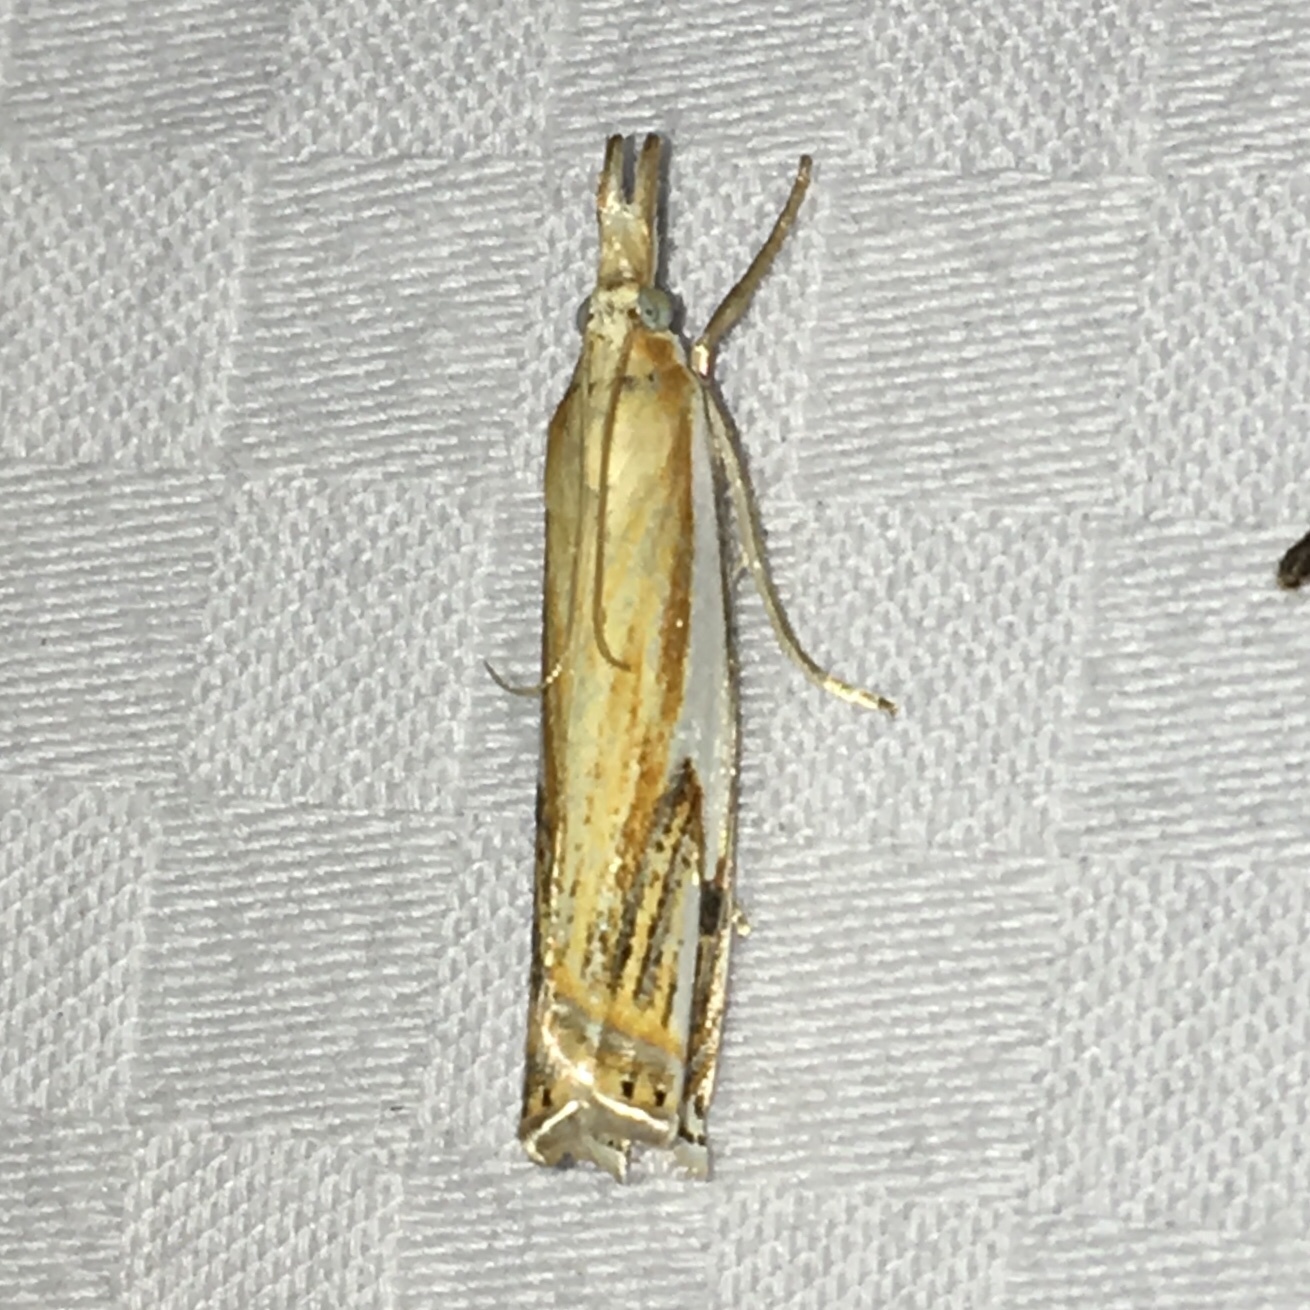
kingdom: Animalia
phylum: Arthropoda
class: Insecta
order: Lepidoptera
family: Crambidae
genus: Crambus
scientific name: Crambus agitatellus
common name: Double-banded grass-veneer
